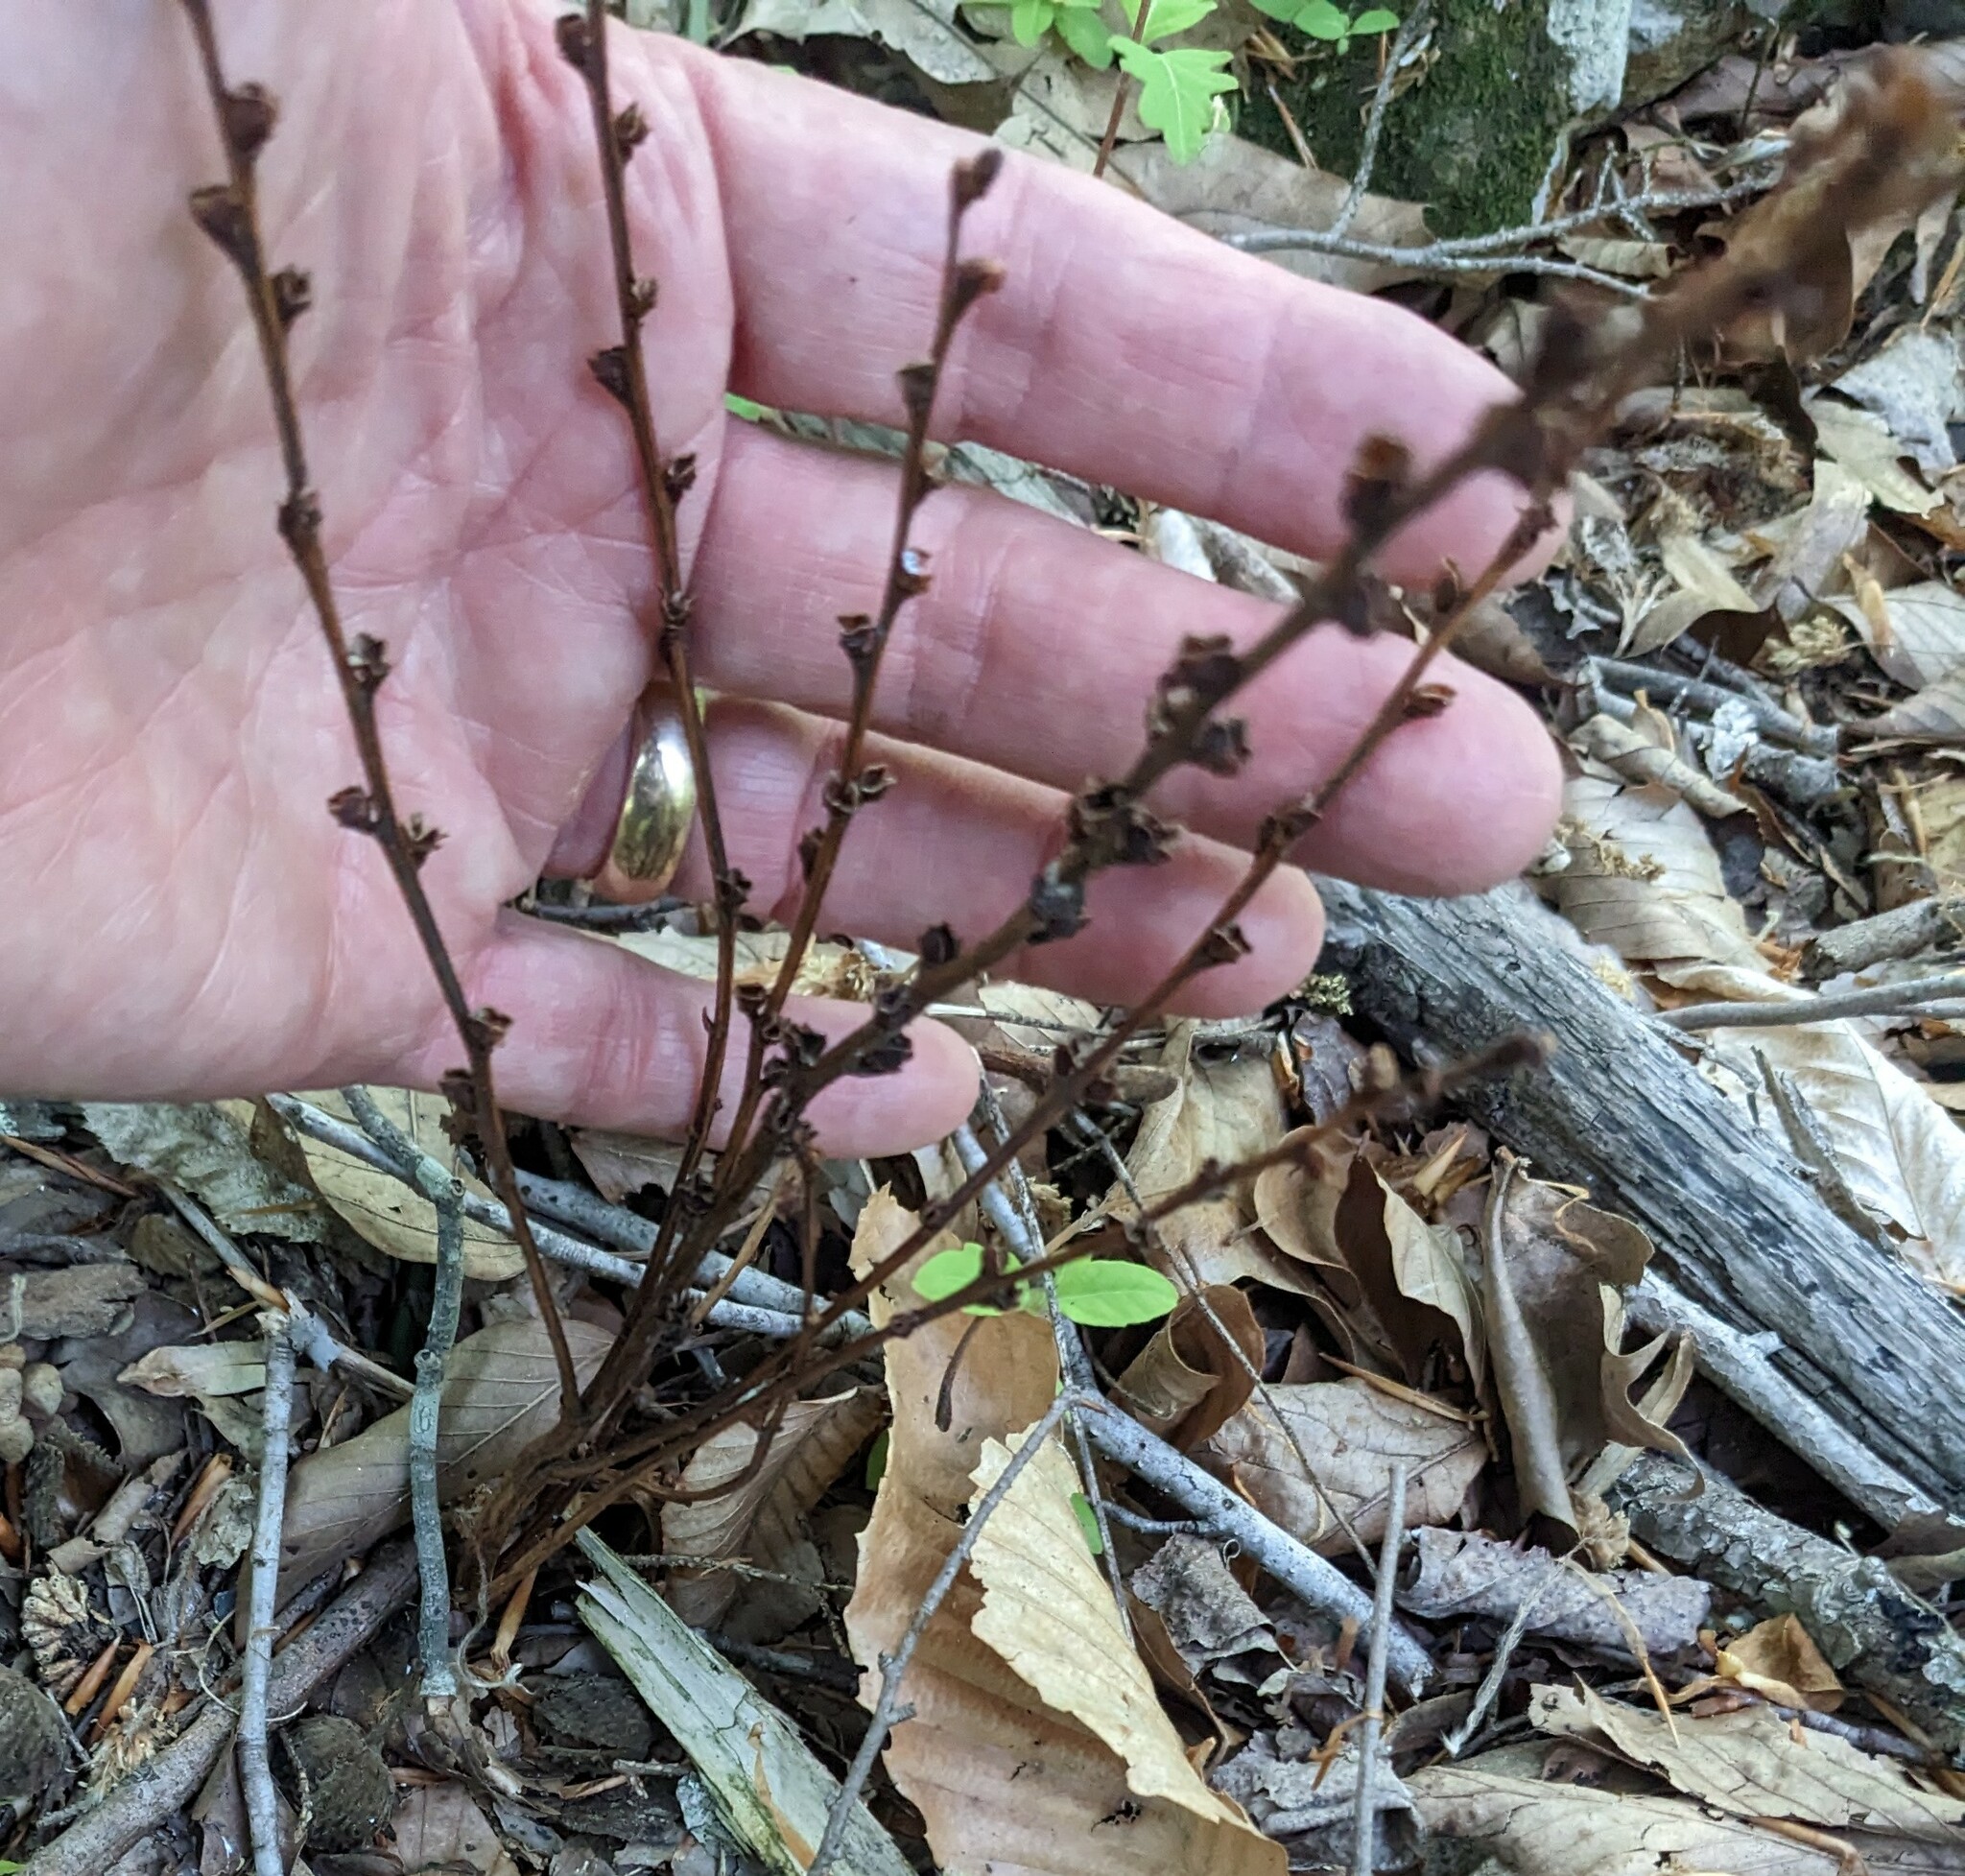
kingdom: Plantae
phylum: Tracheophyta
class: Magnoliopsida
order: Lamiales
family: Orobanchaceae
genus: Epifagus
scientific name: Epifagus virginiana
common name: Beechdrops
